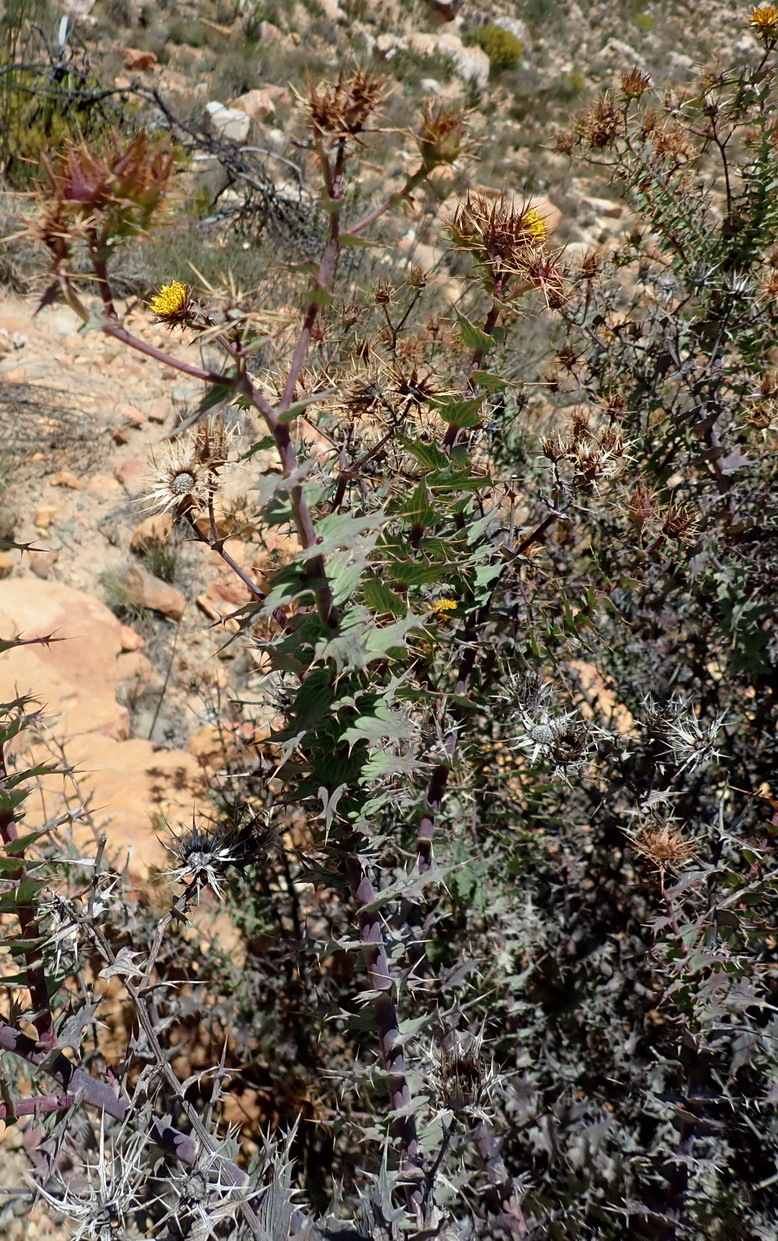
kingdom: Plantae
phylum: Tracheophyta
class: Magnoliopsida
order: Asterales
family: Asteraceae
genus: Berkheya
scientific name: Berkheya cruciata
